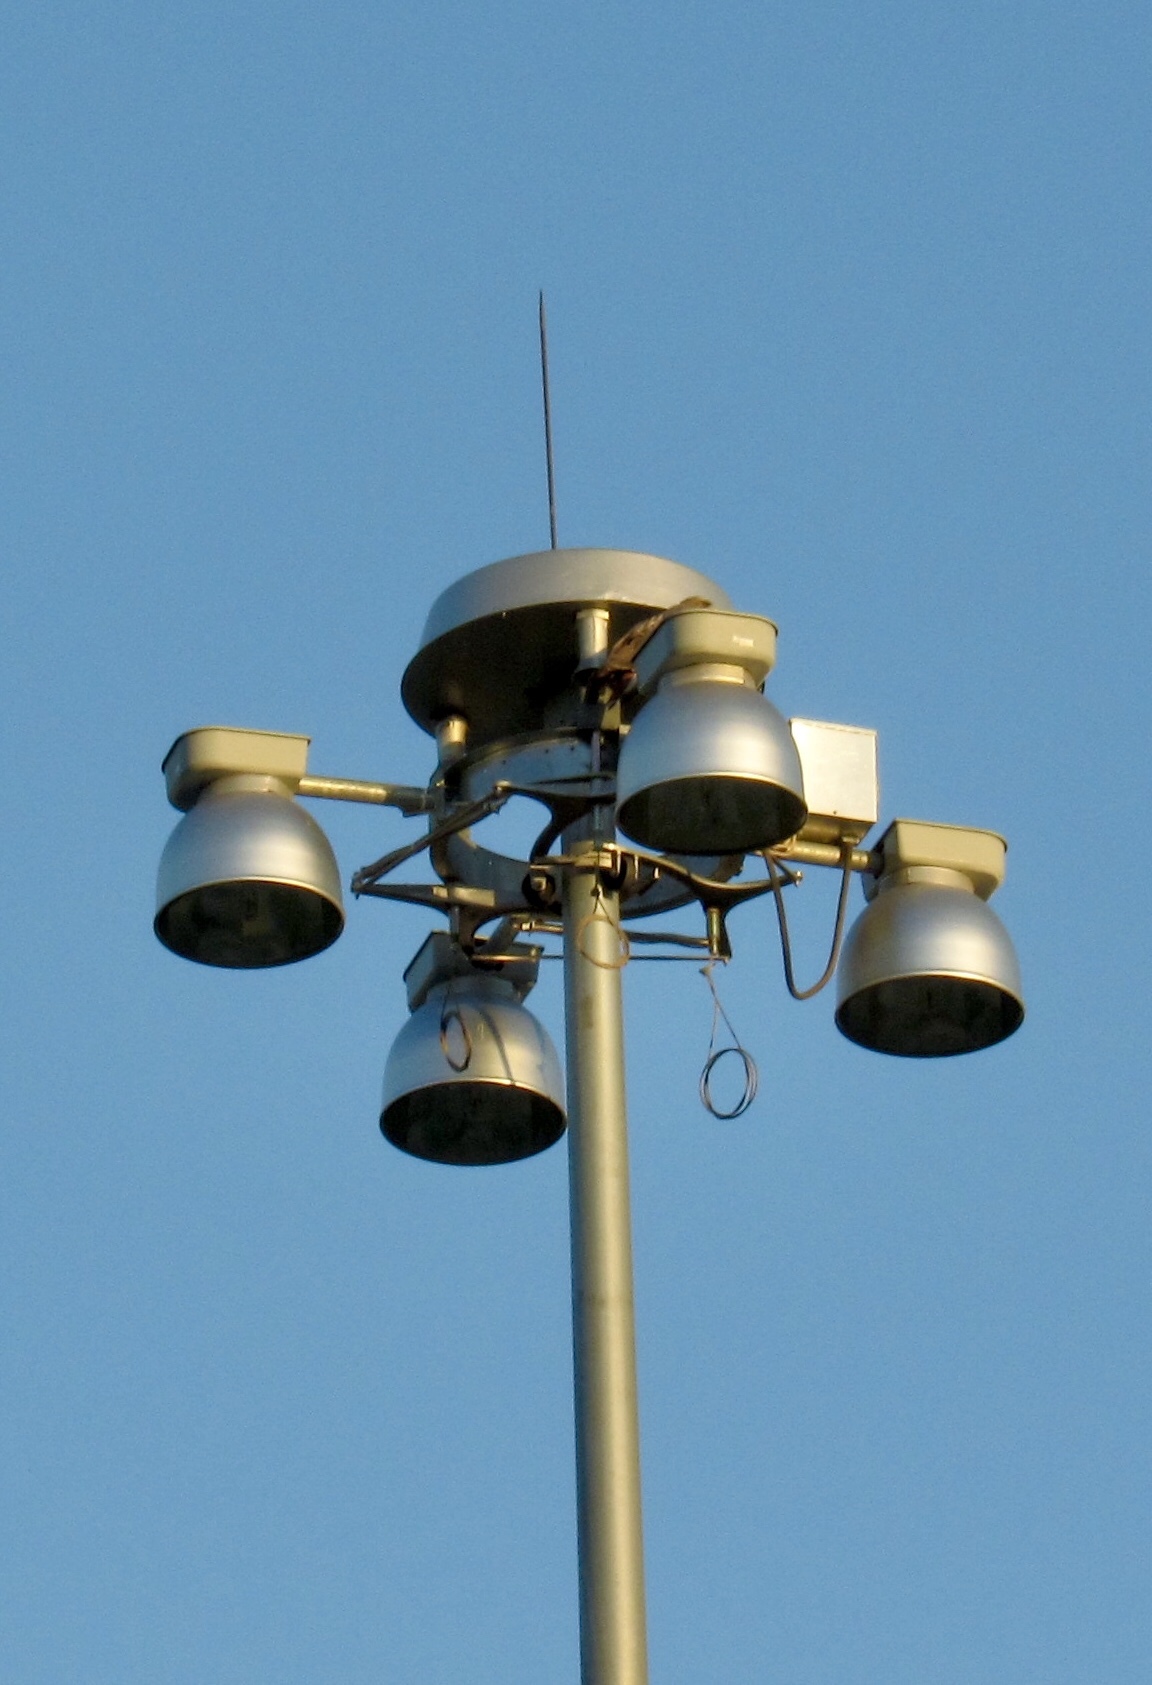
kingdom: Animalia
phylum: Chordata
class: Aves
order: Accipitriformes
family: Accipitridae
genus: Buteo
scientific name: Buteo jamaicensis
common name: Red-tailed hawk
